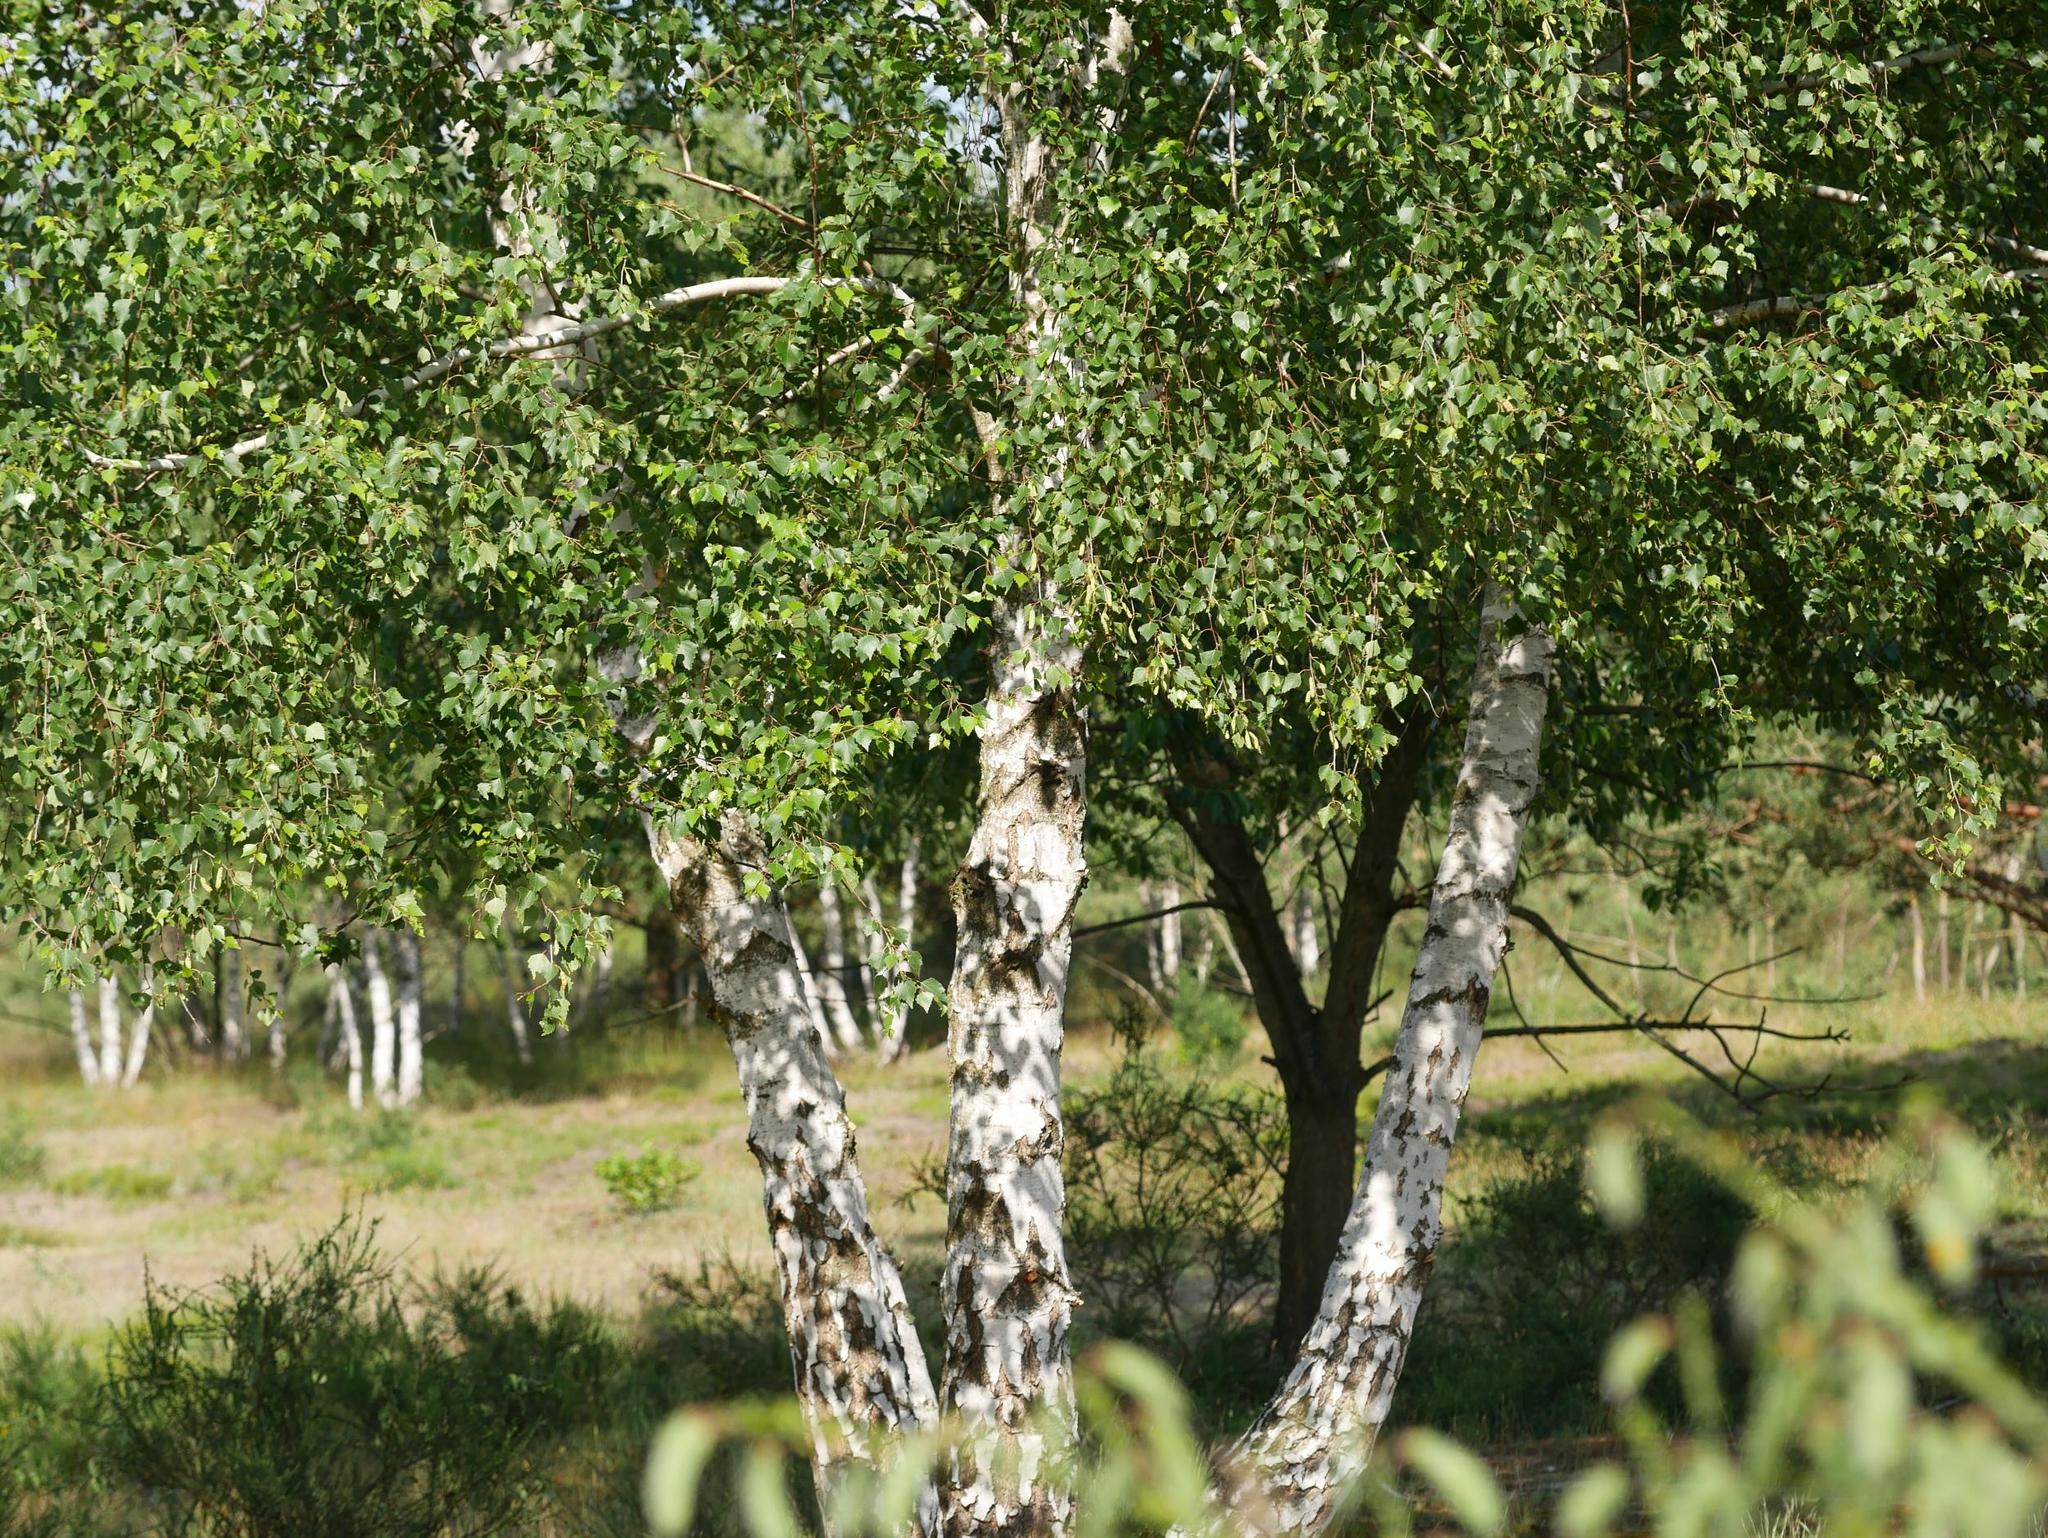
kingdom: Plantae
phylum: Tracheophyta
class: Magnoliopsida
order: Fagales
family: Betulaceae
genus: Betula
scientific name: Betula pendula
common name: Silver birch
